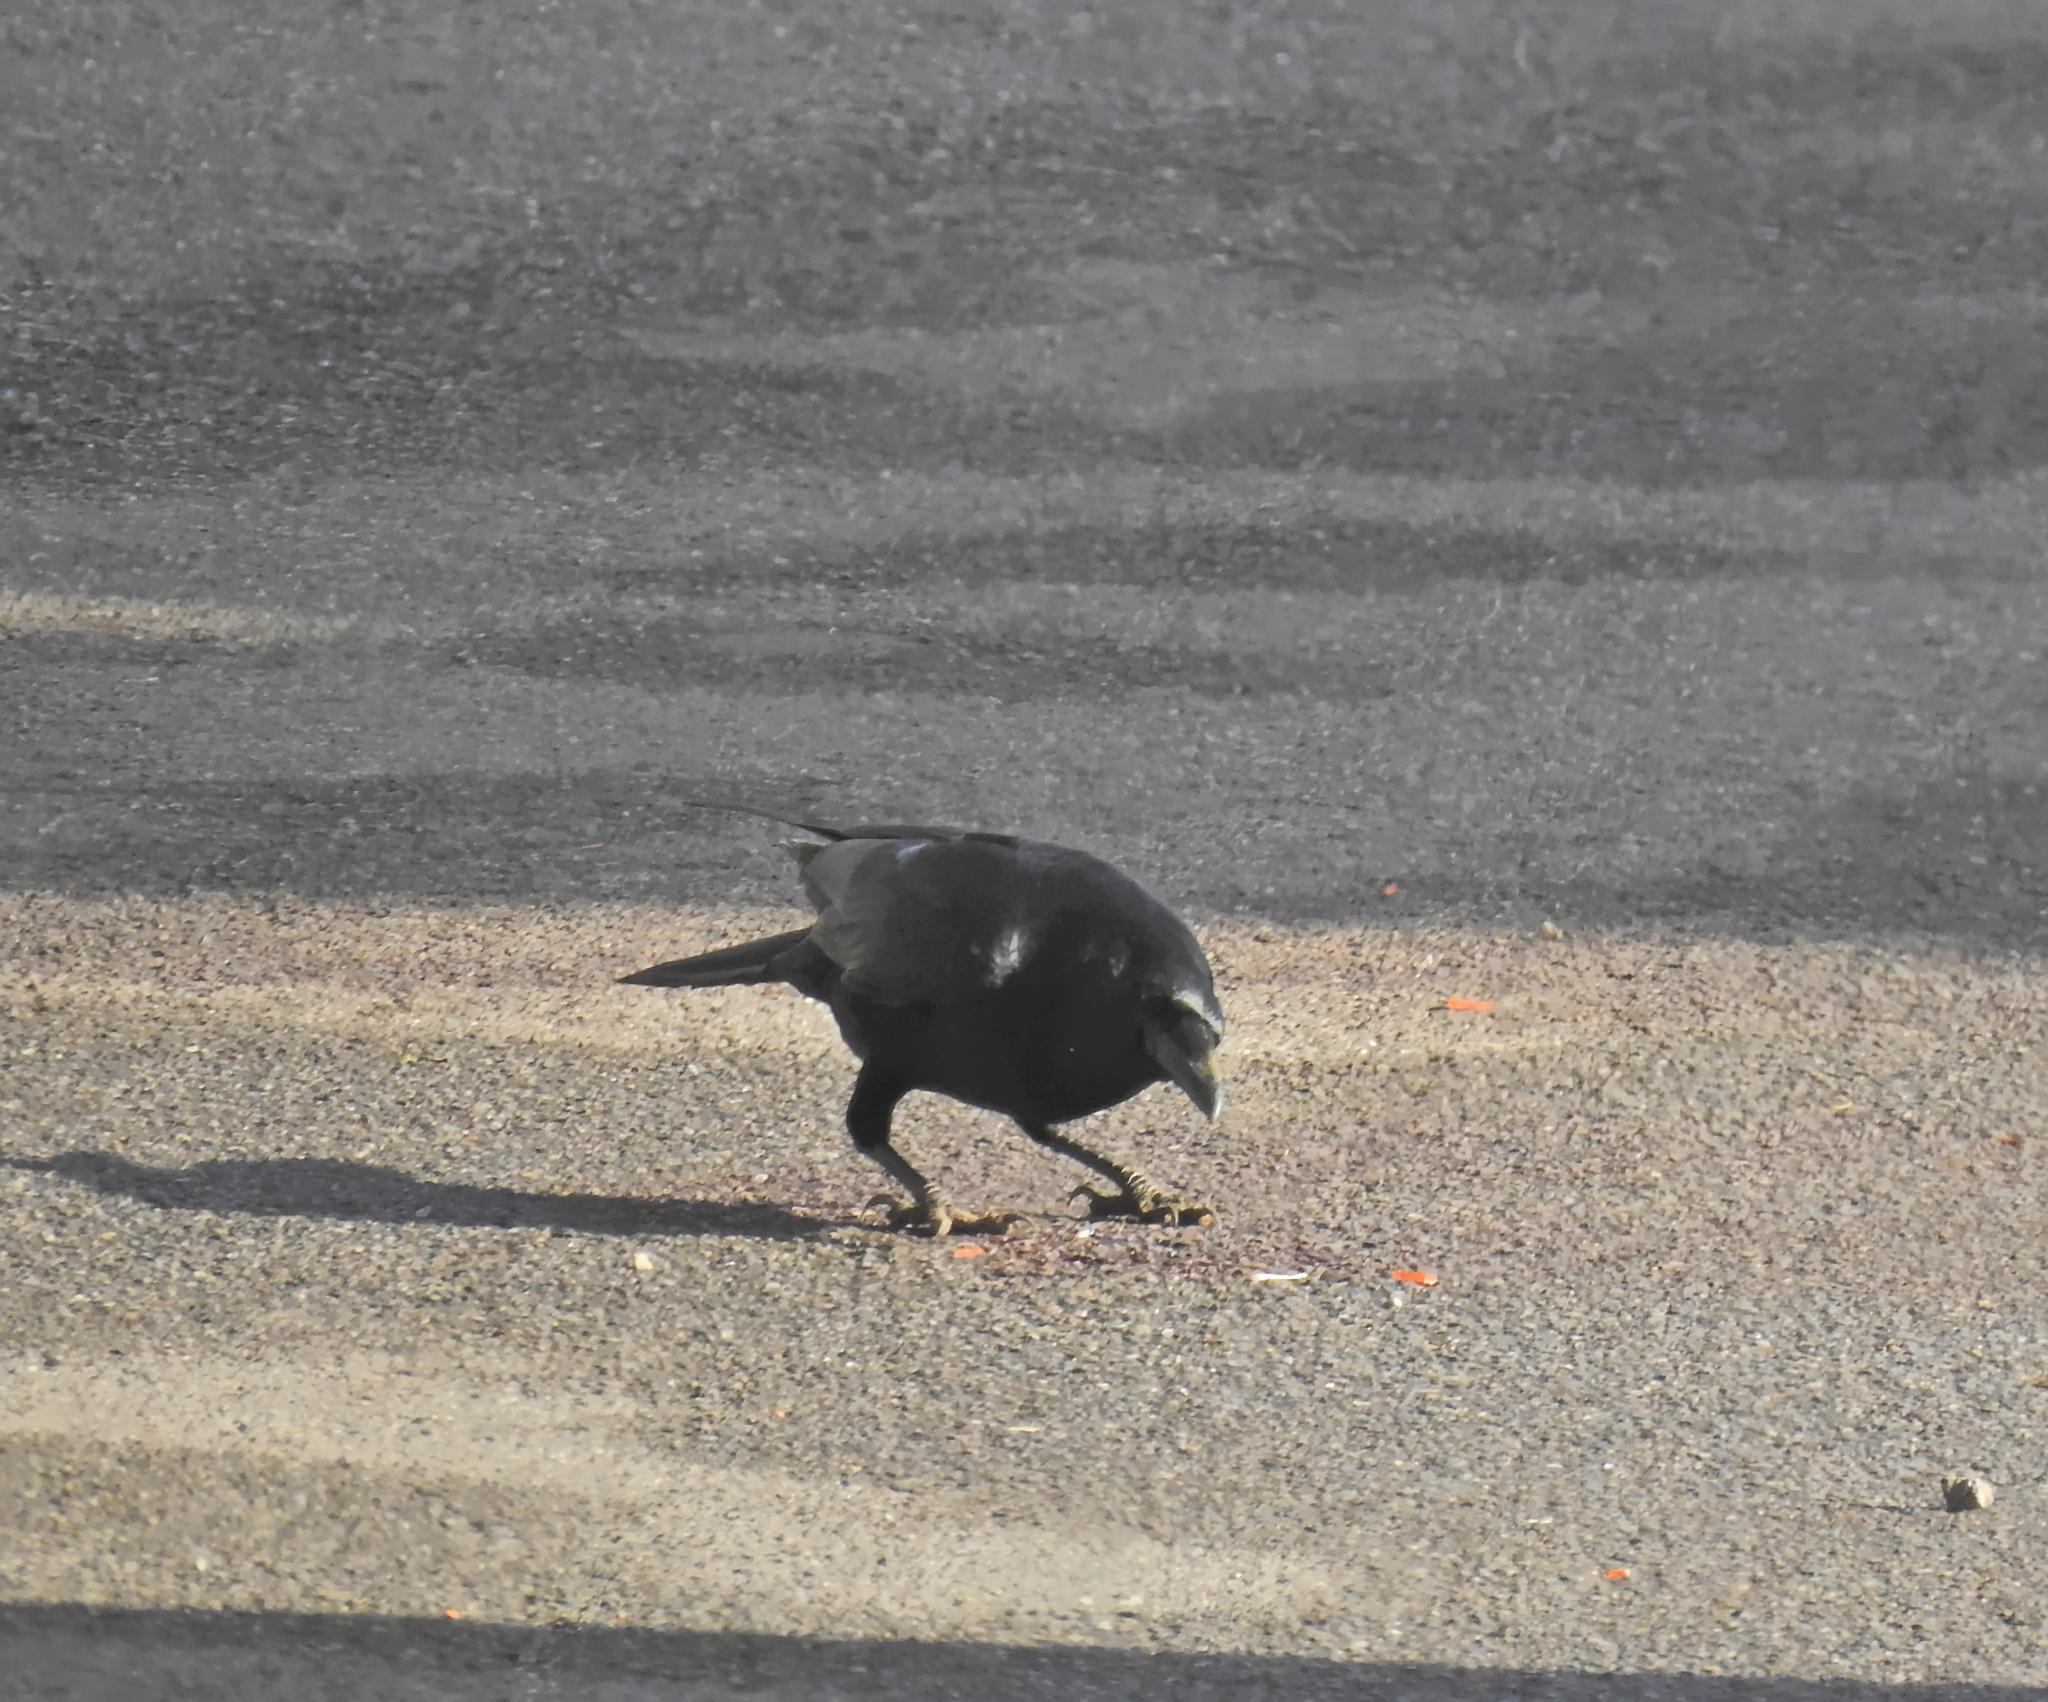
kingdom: Animalia
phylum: Chordata
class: Aves
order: Passeriformes
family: Corvidae
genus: Corvus
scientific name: Corvus corone
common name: Carrion crow
